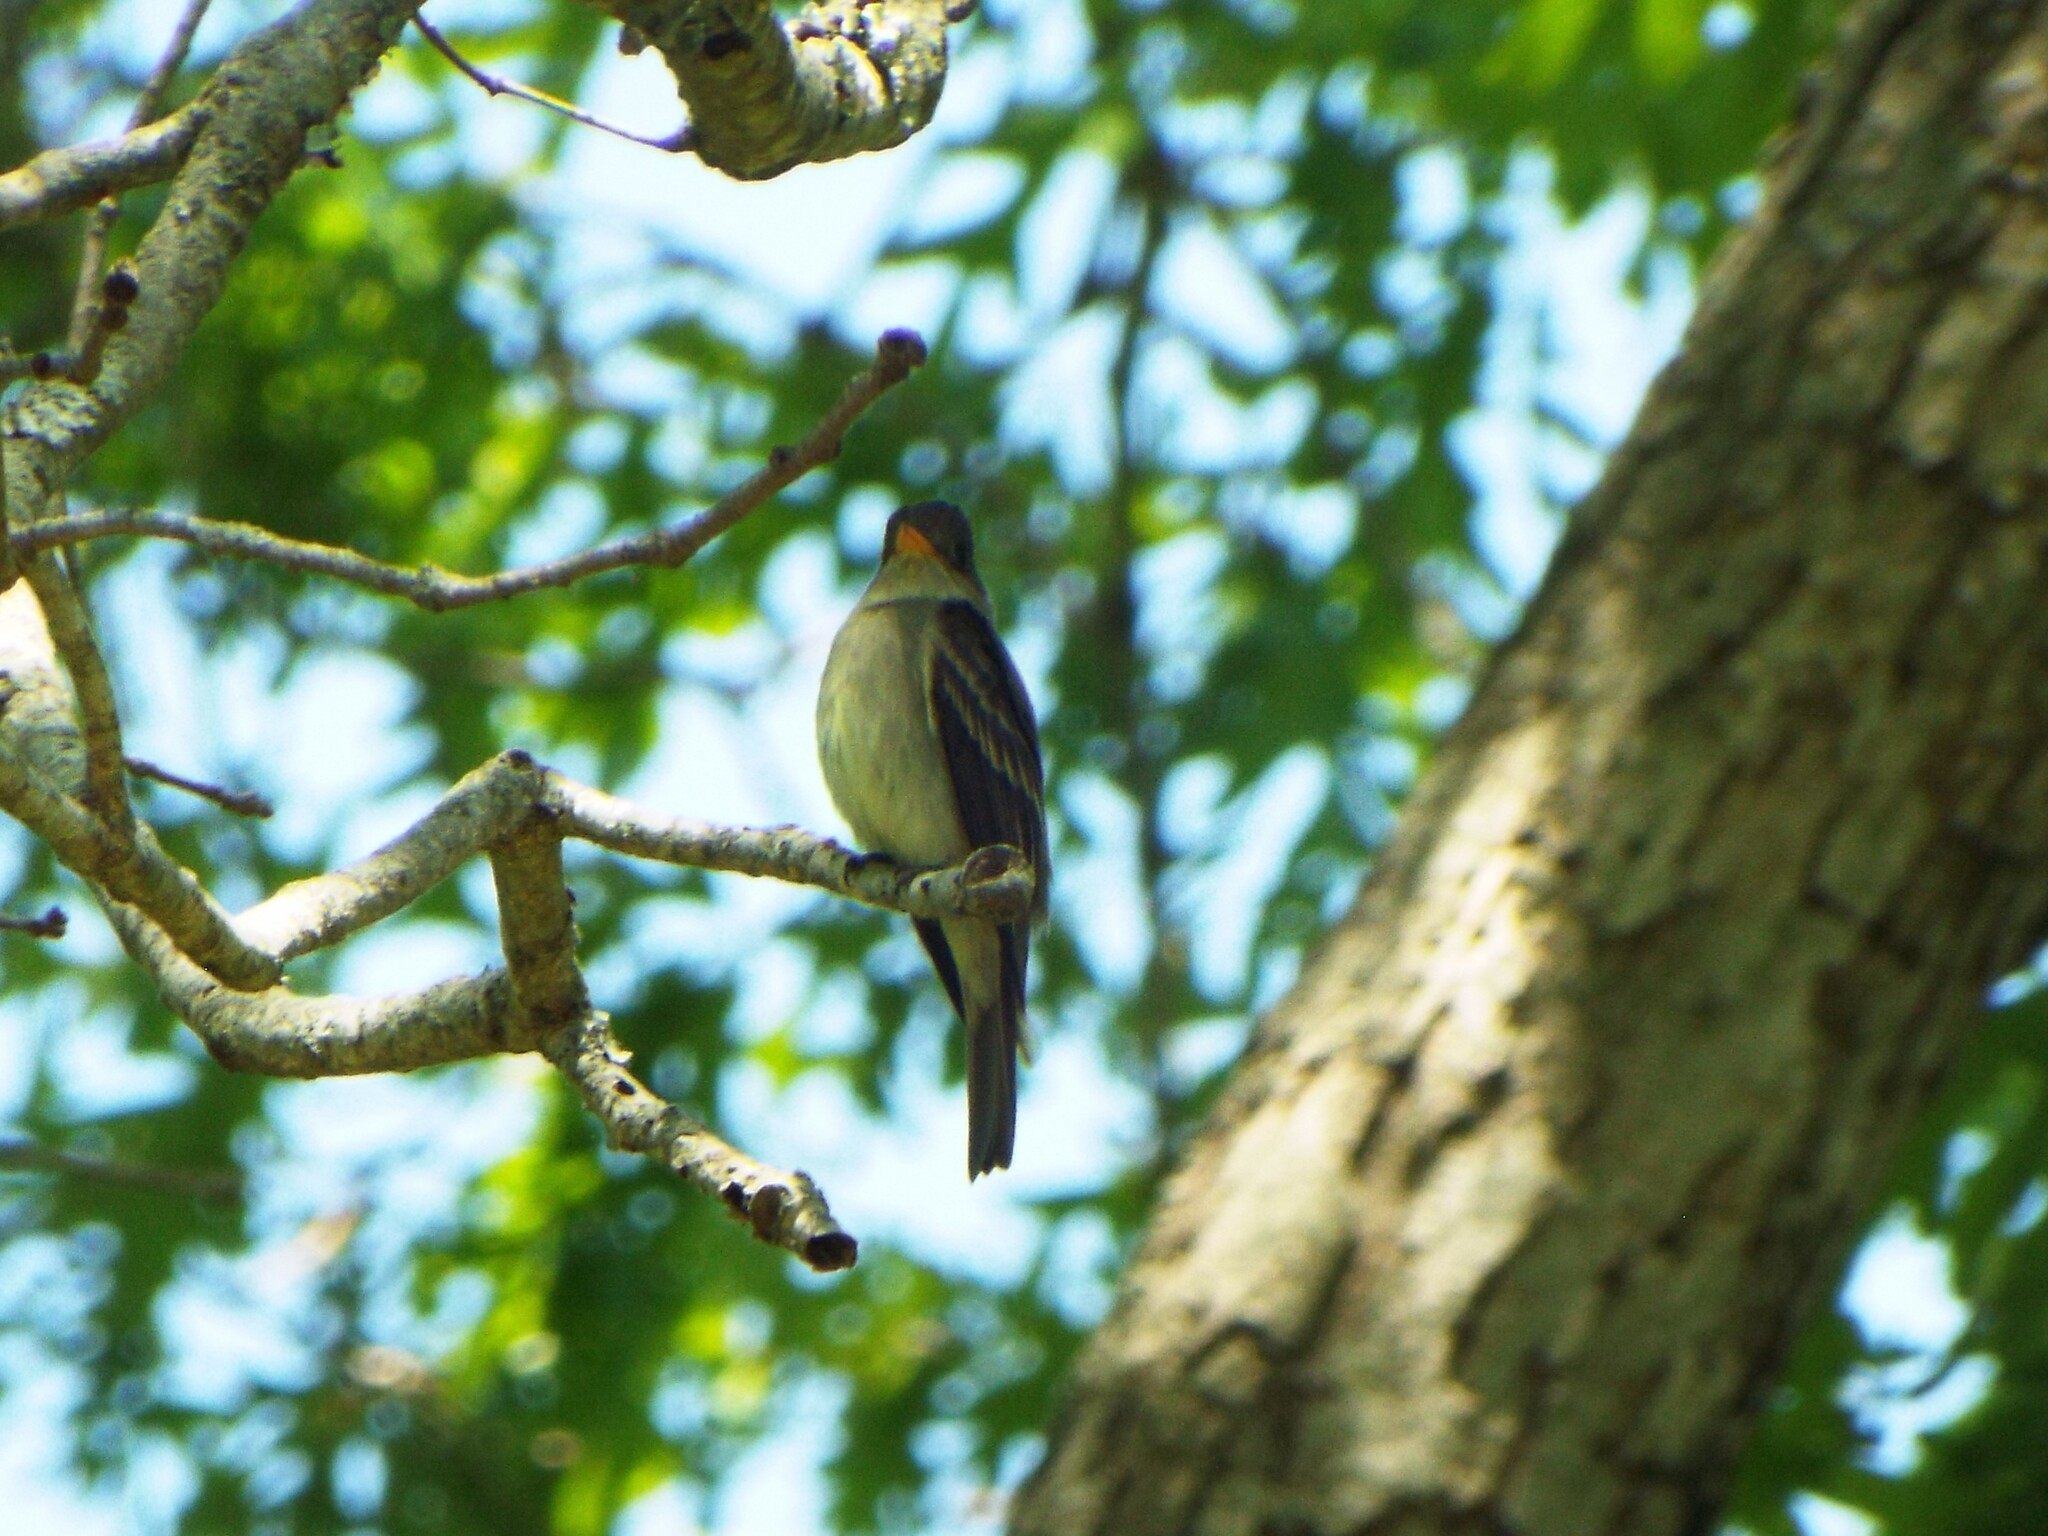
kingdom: Animalia
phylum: Chordata
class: Aves
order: Passeriformes
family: Tyrannidae
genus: Contopus
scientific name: Contopus virens
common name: Eastern wood-pewee
